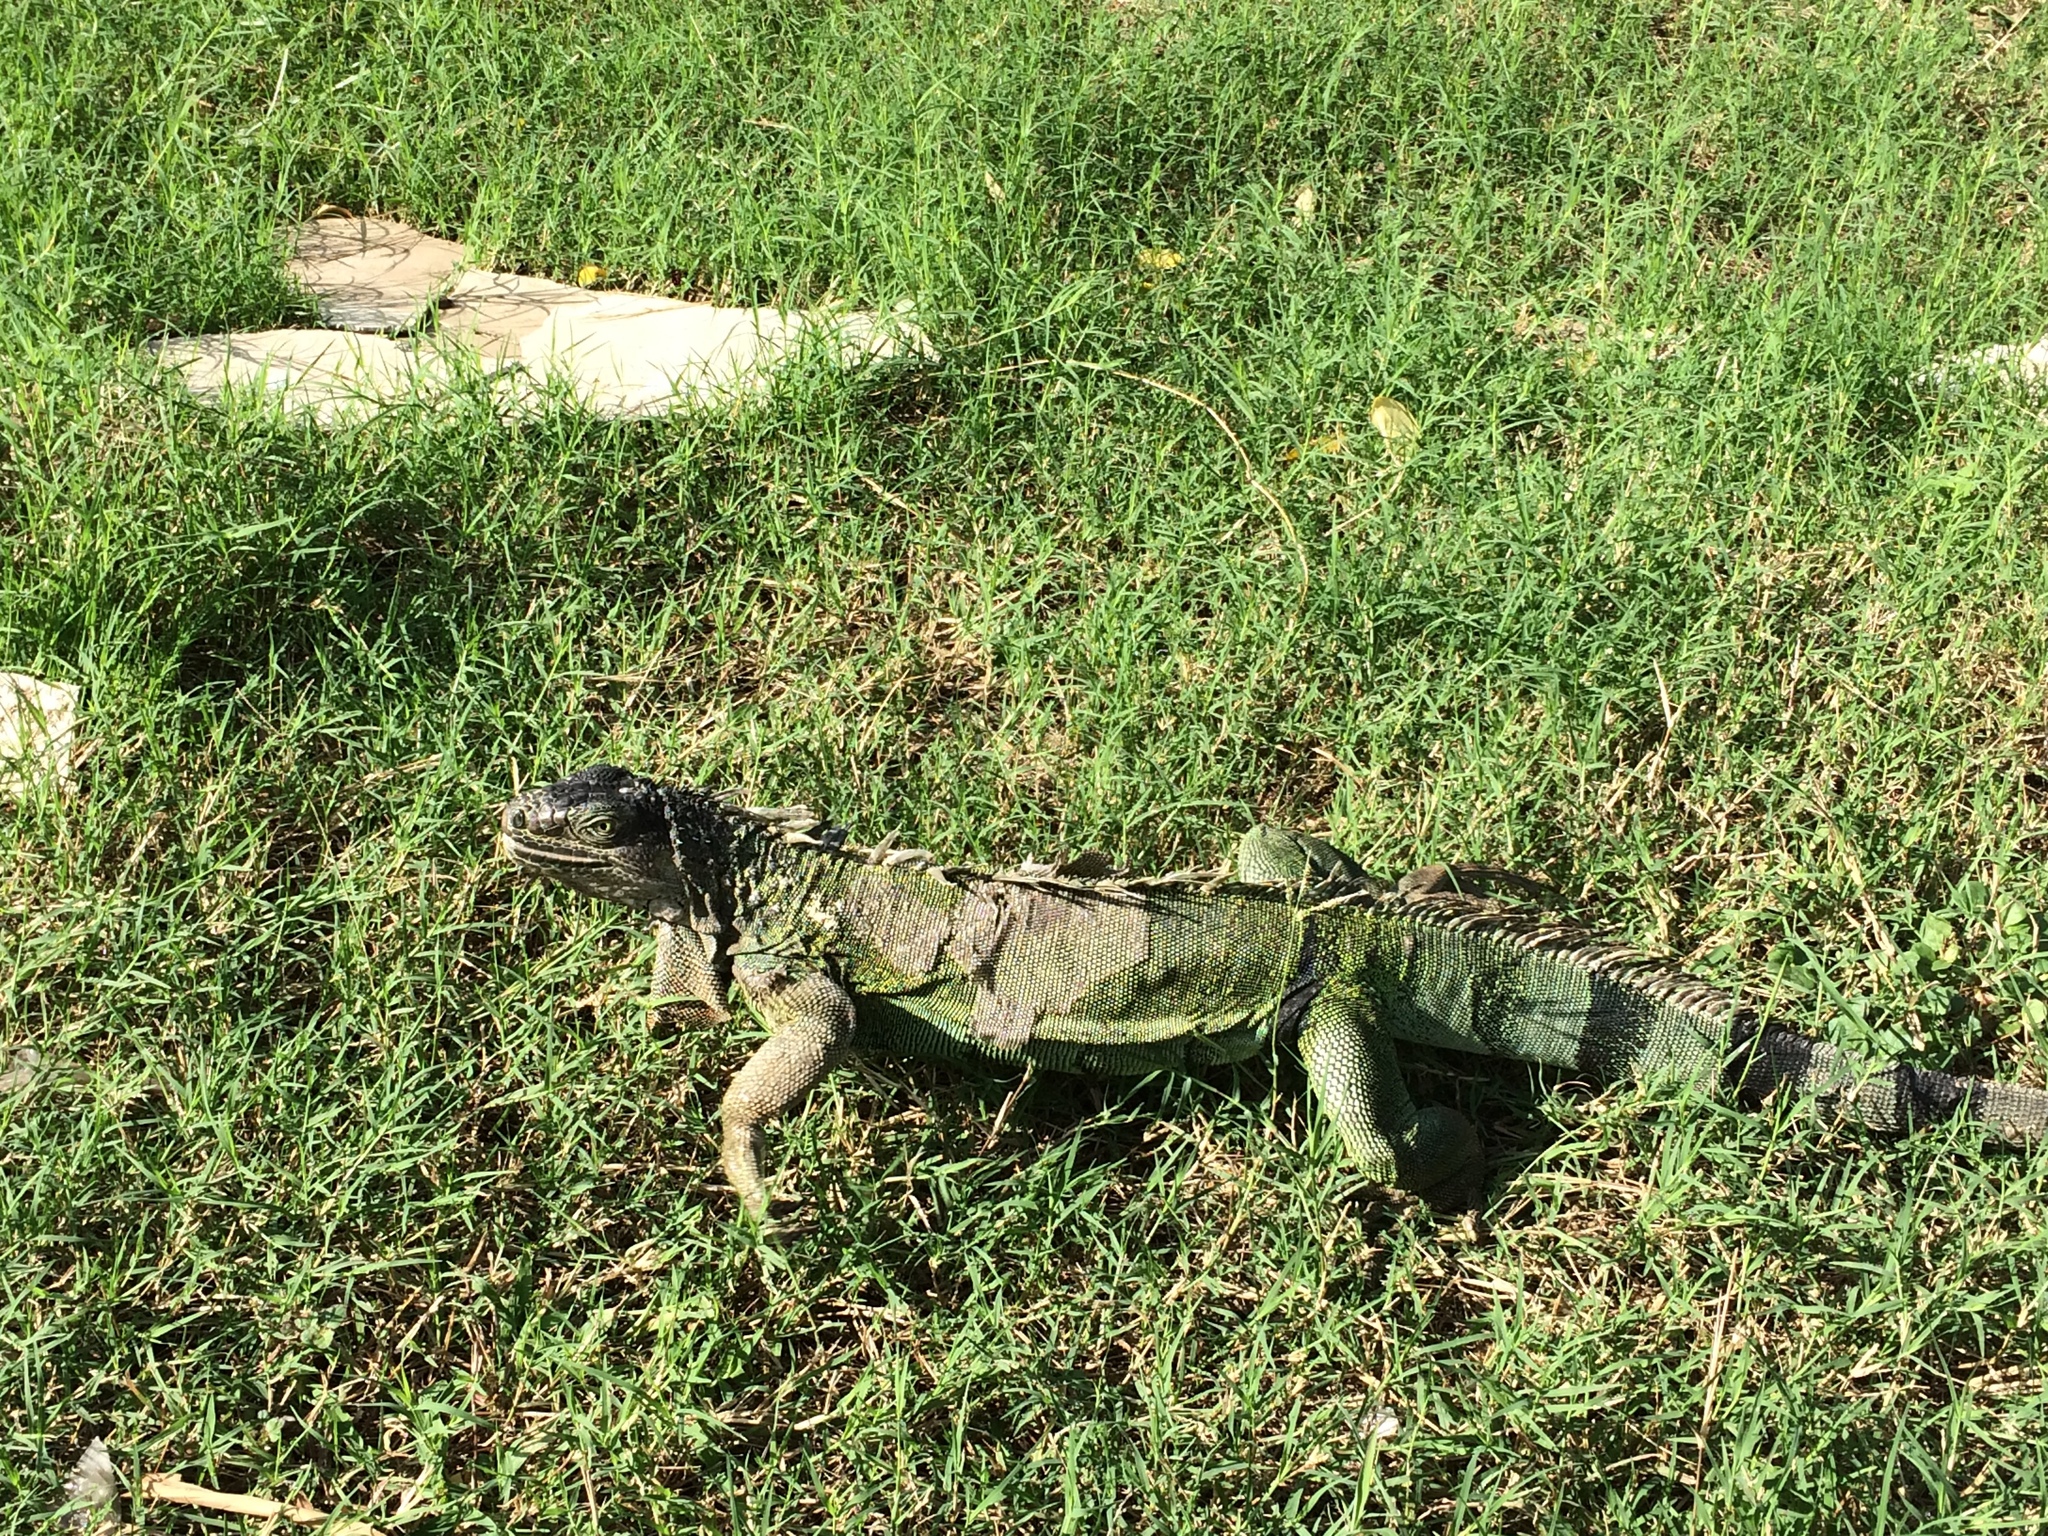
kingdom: Animalia
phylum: Chordata
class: Squamata
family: Iguanidae
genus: Iguana
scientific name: Iguana iguana
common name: Green iguana
